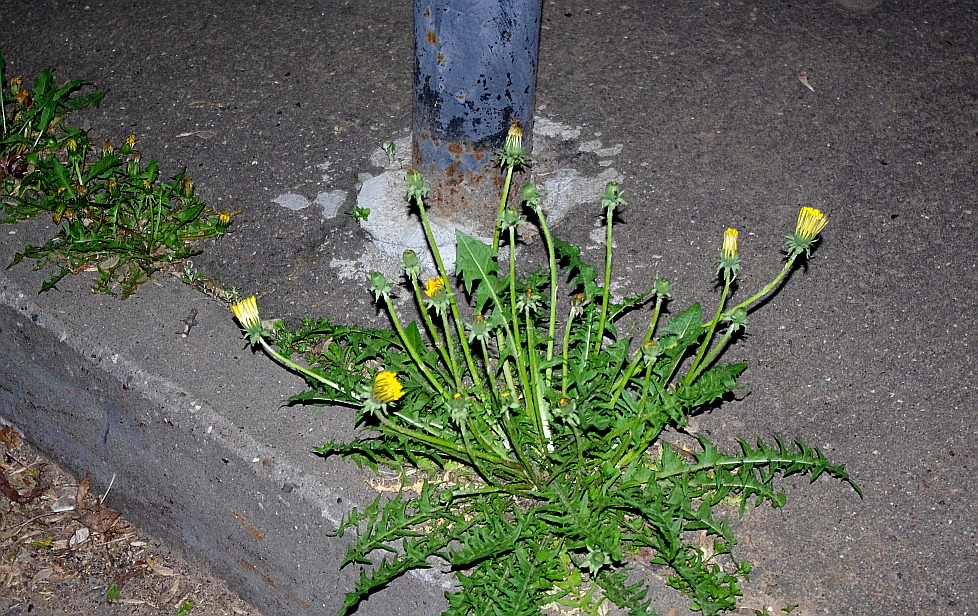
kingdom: Plantae
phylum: Tracheophyta
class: Magnoliopsida
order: Asterales
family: Asteraceae
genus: Taraxacum
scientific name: Taraxacum officinale
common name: Common dandelion
